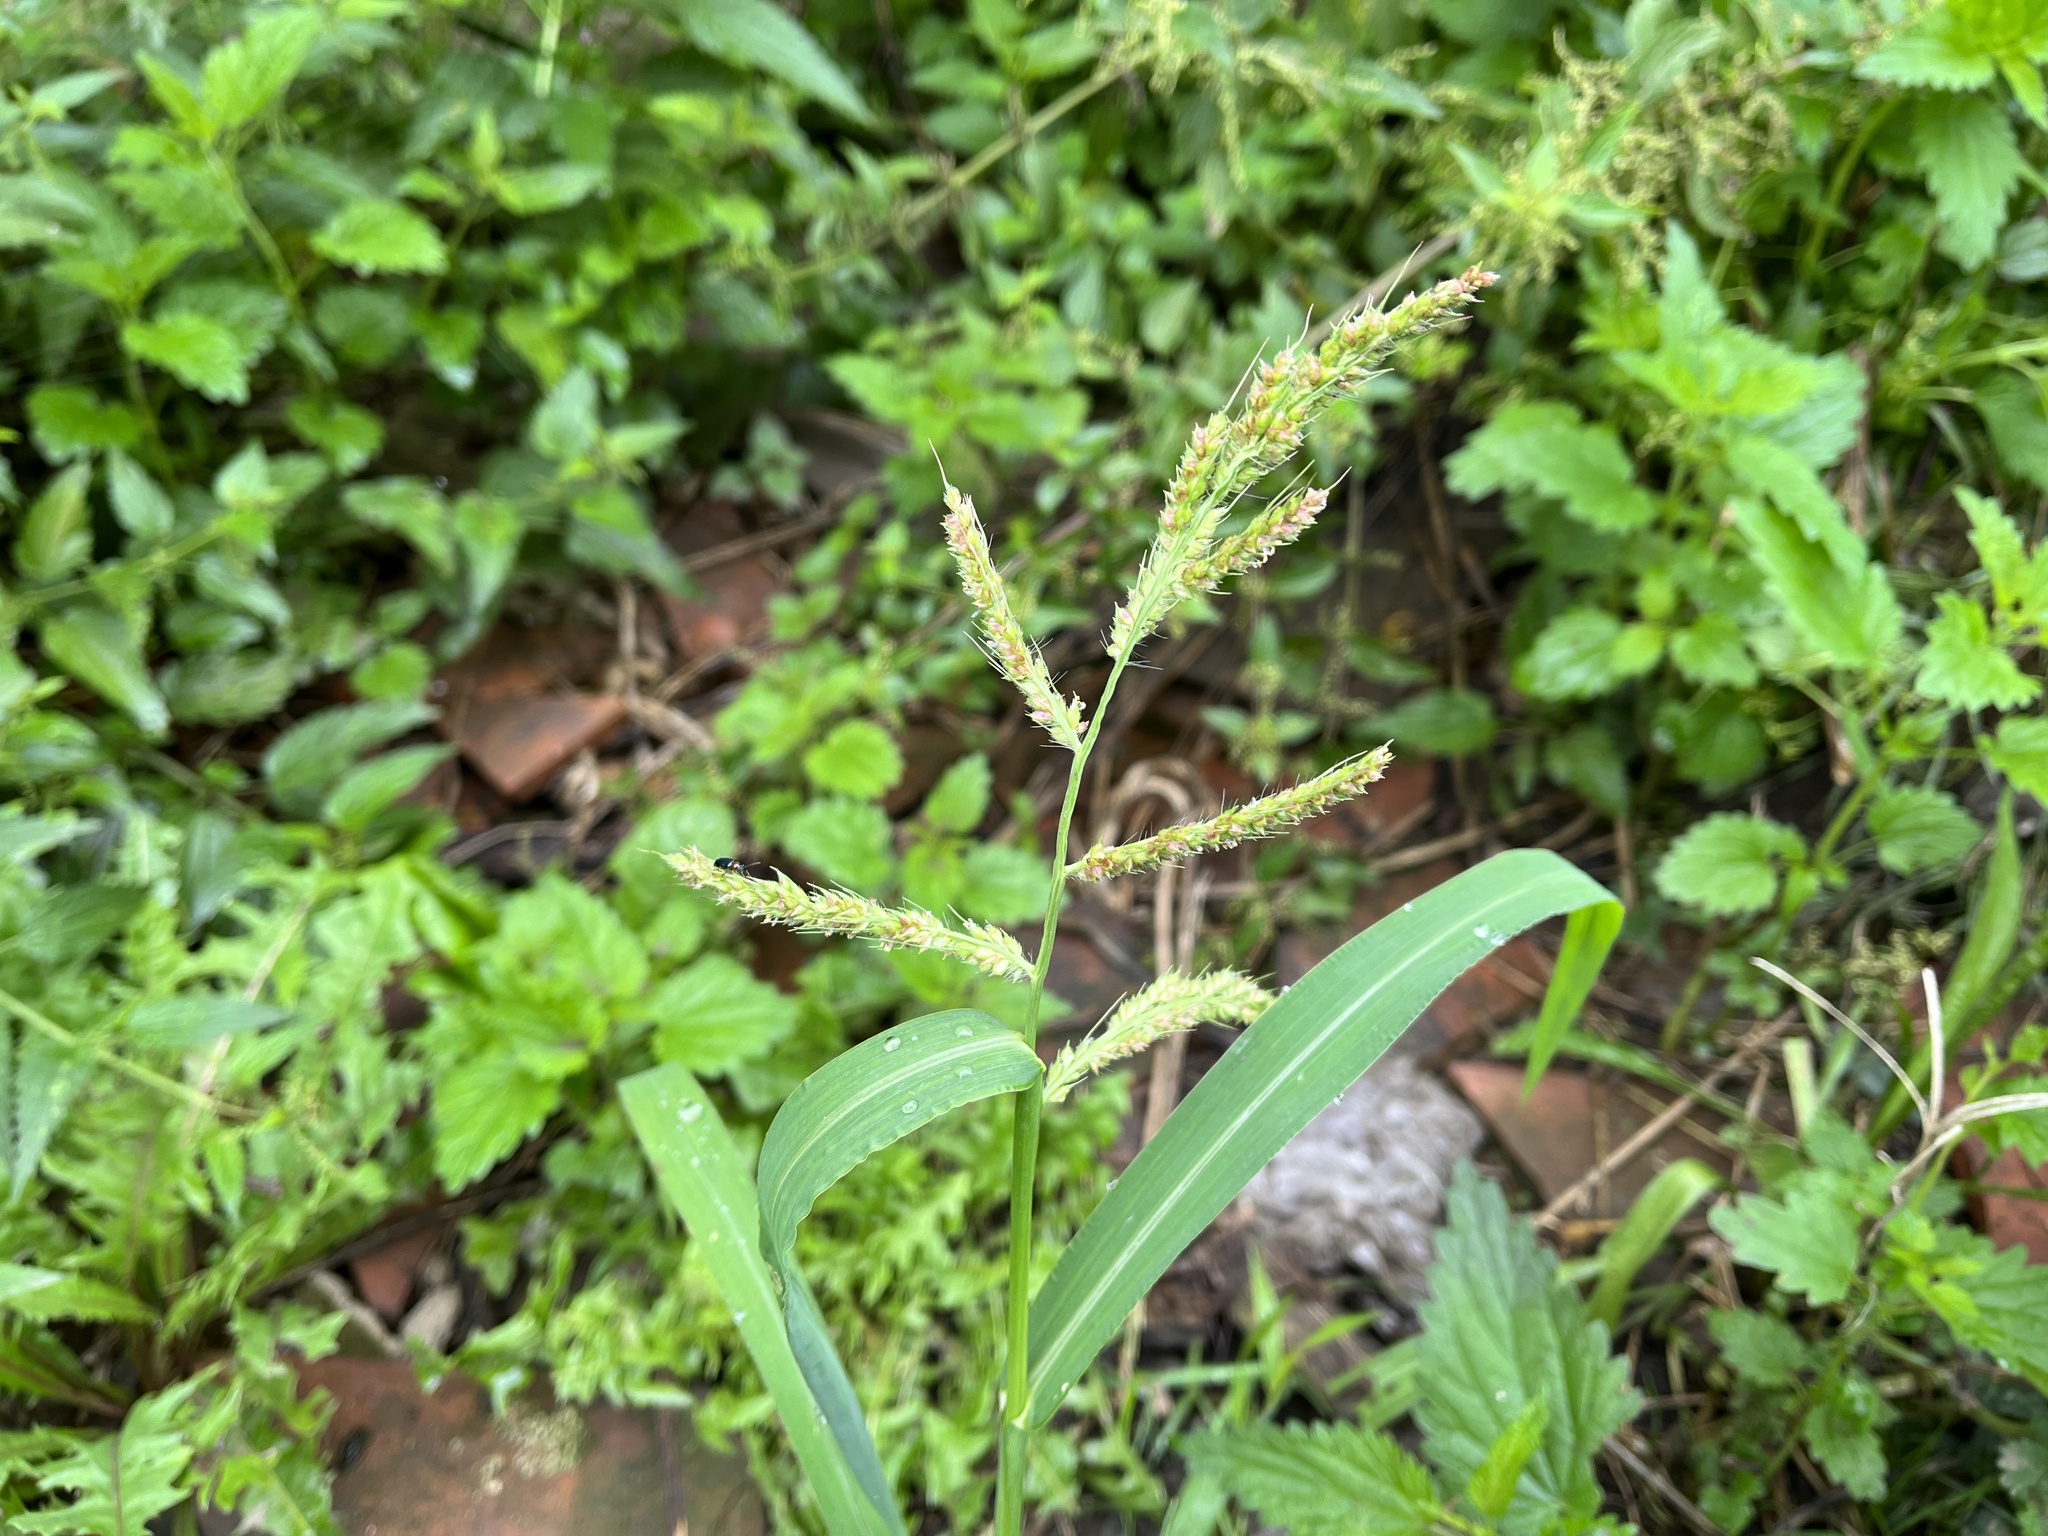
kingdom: Plantae
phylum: Tracheophyta
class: Liliopsida
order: Poales
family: Poaceae
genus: Echinochloa
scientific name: Echinochloa crus-galli
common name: Cockspur
